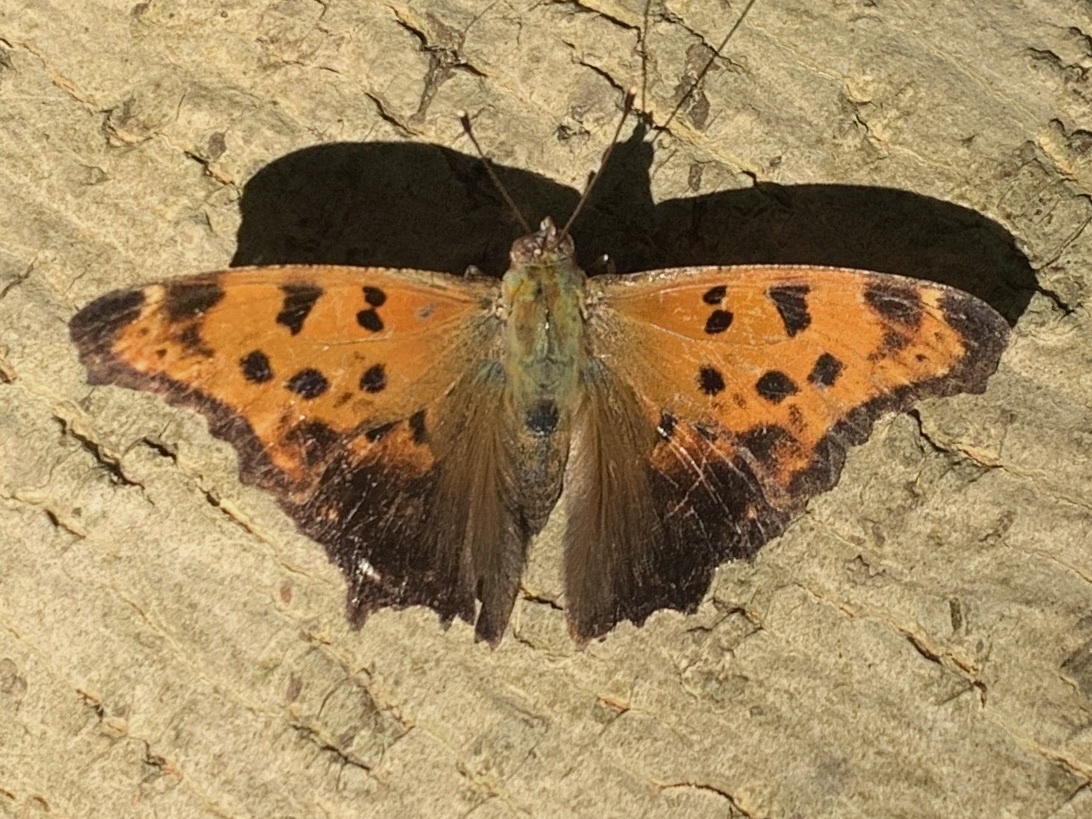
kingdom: Animalia
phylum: Arthropoda
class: Insecta
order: Lepidoptera
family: Nymphalidae
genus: Polygonia
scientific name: Polygonia comma
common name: Eastern comma
